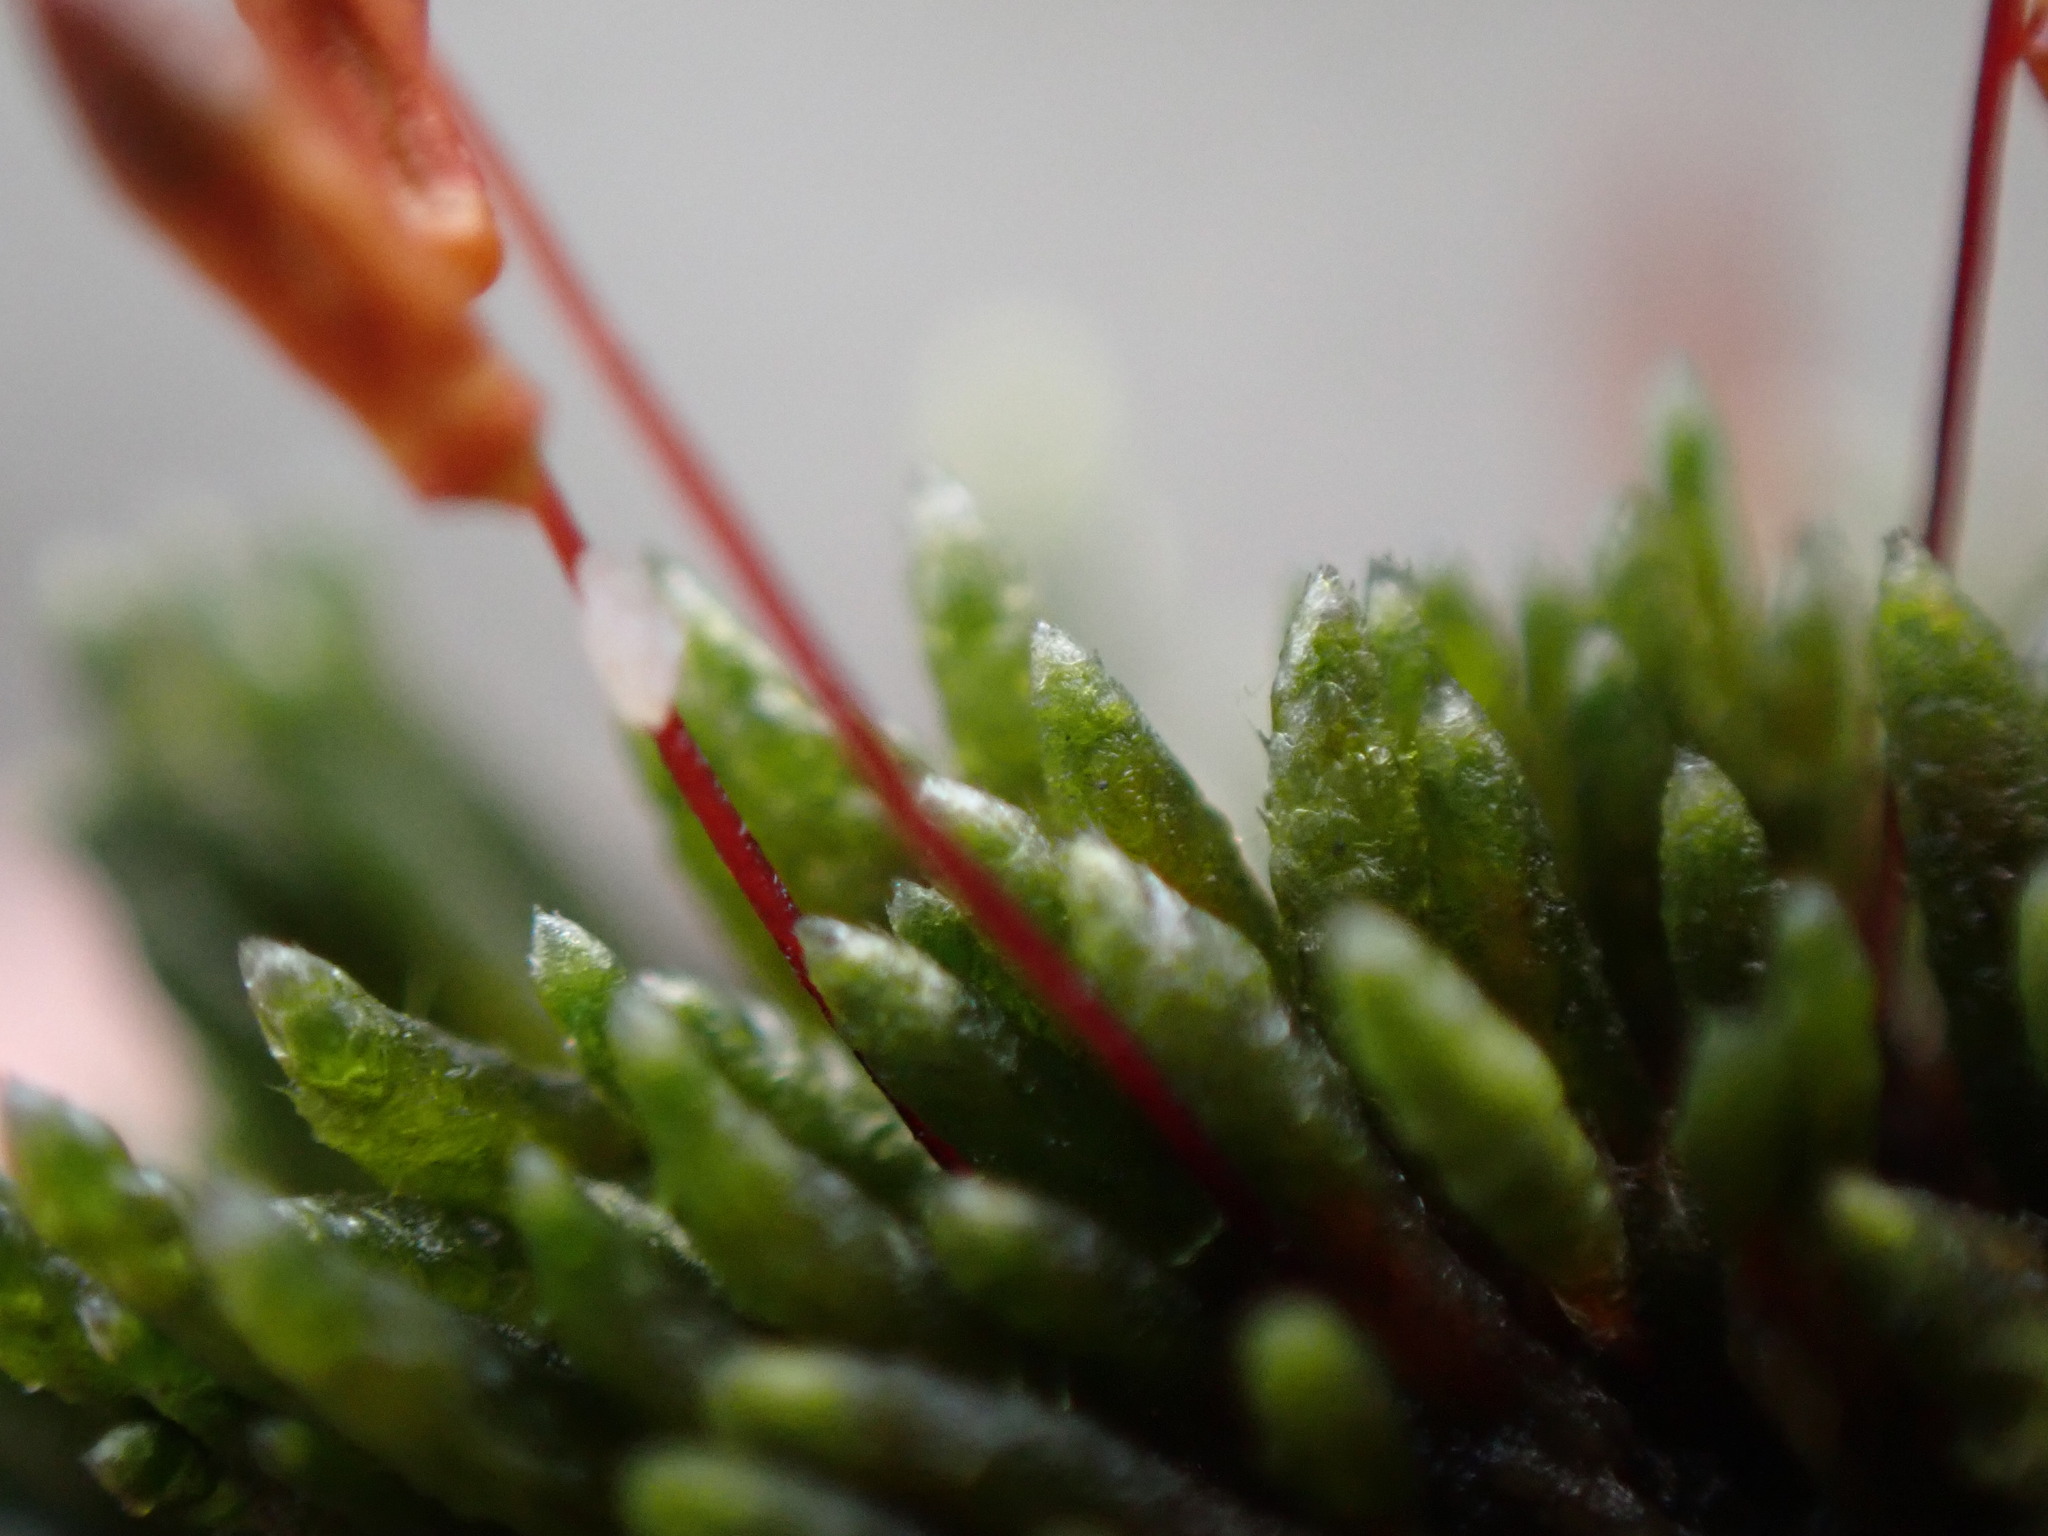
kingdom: Plantae
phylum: Bryophyta
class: Bryopsida
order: Bryales
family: Bryaceae
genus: Bryum
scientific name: Bryum argenteum
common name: Silver-moss
